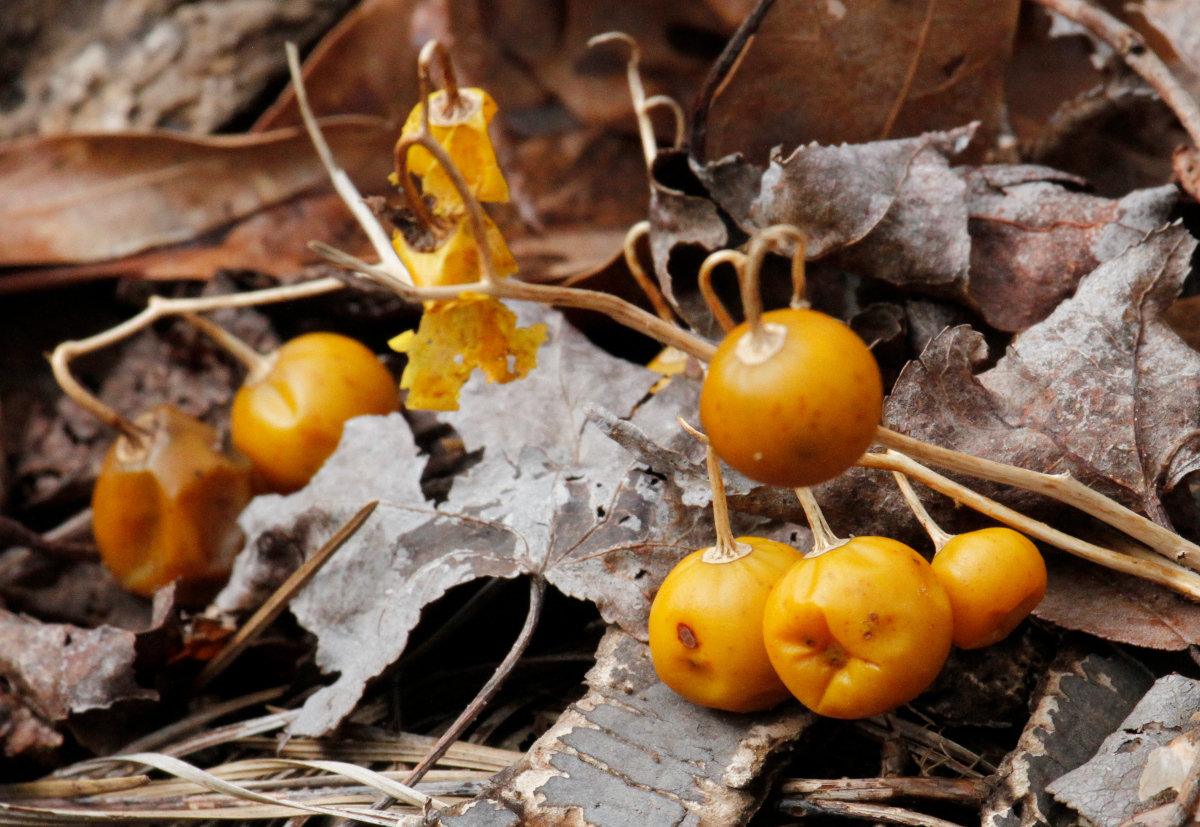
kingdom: Plantae
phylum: Tracheophyta
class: Magnoliopsida
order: Solanales
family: Solanaceae
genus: Solanum
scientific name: Solanum carolinense
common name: Horse-nettle
